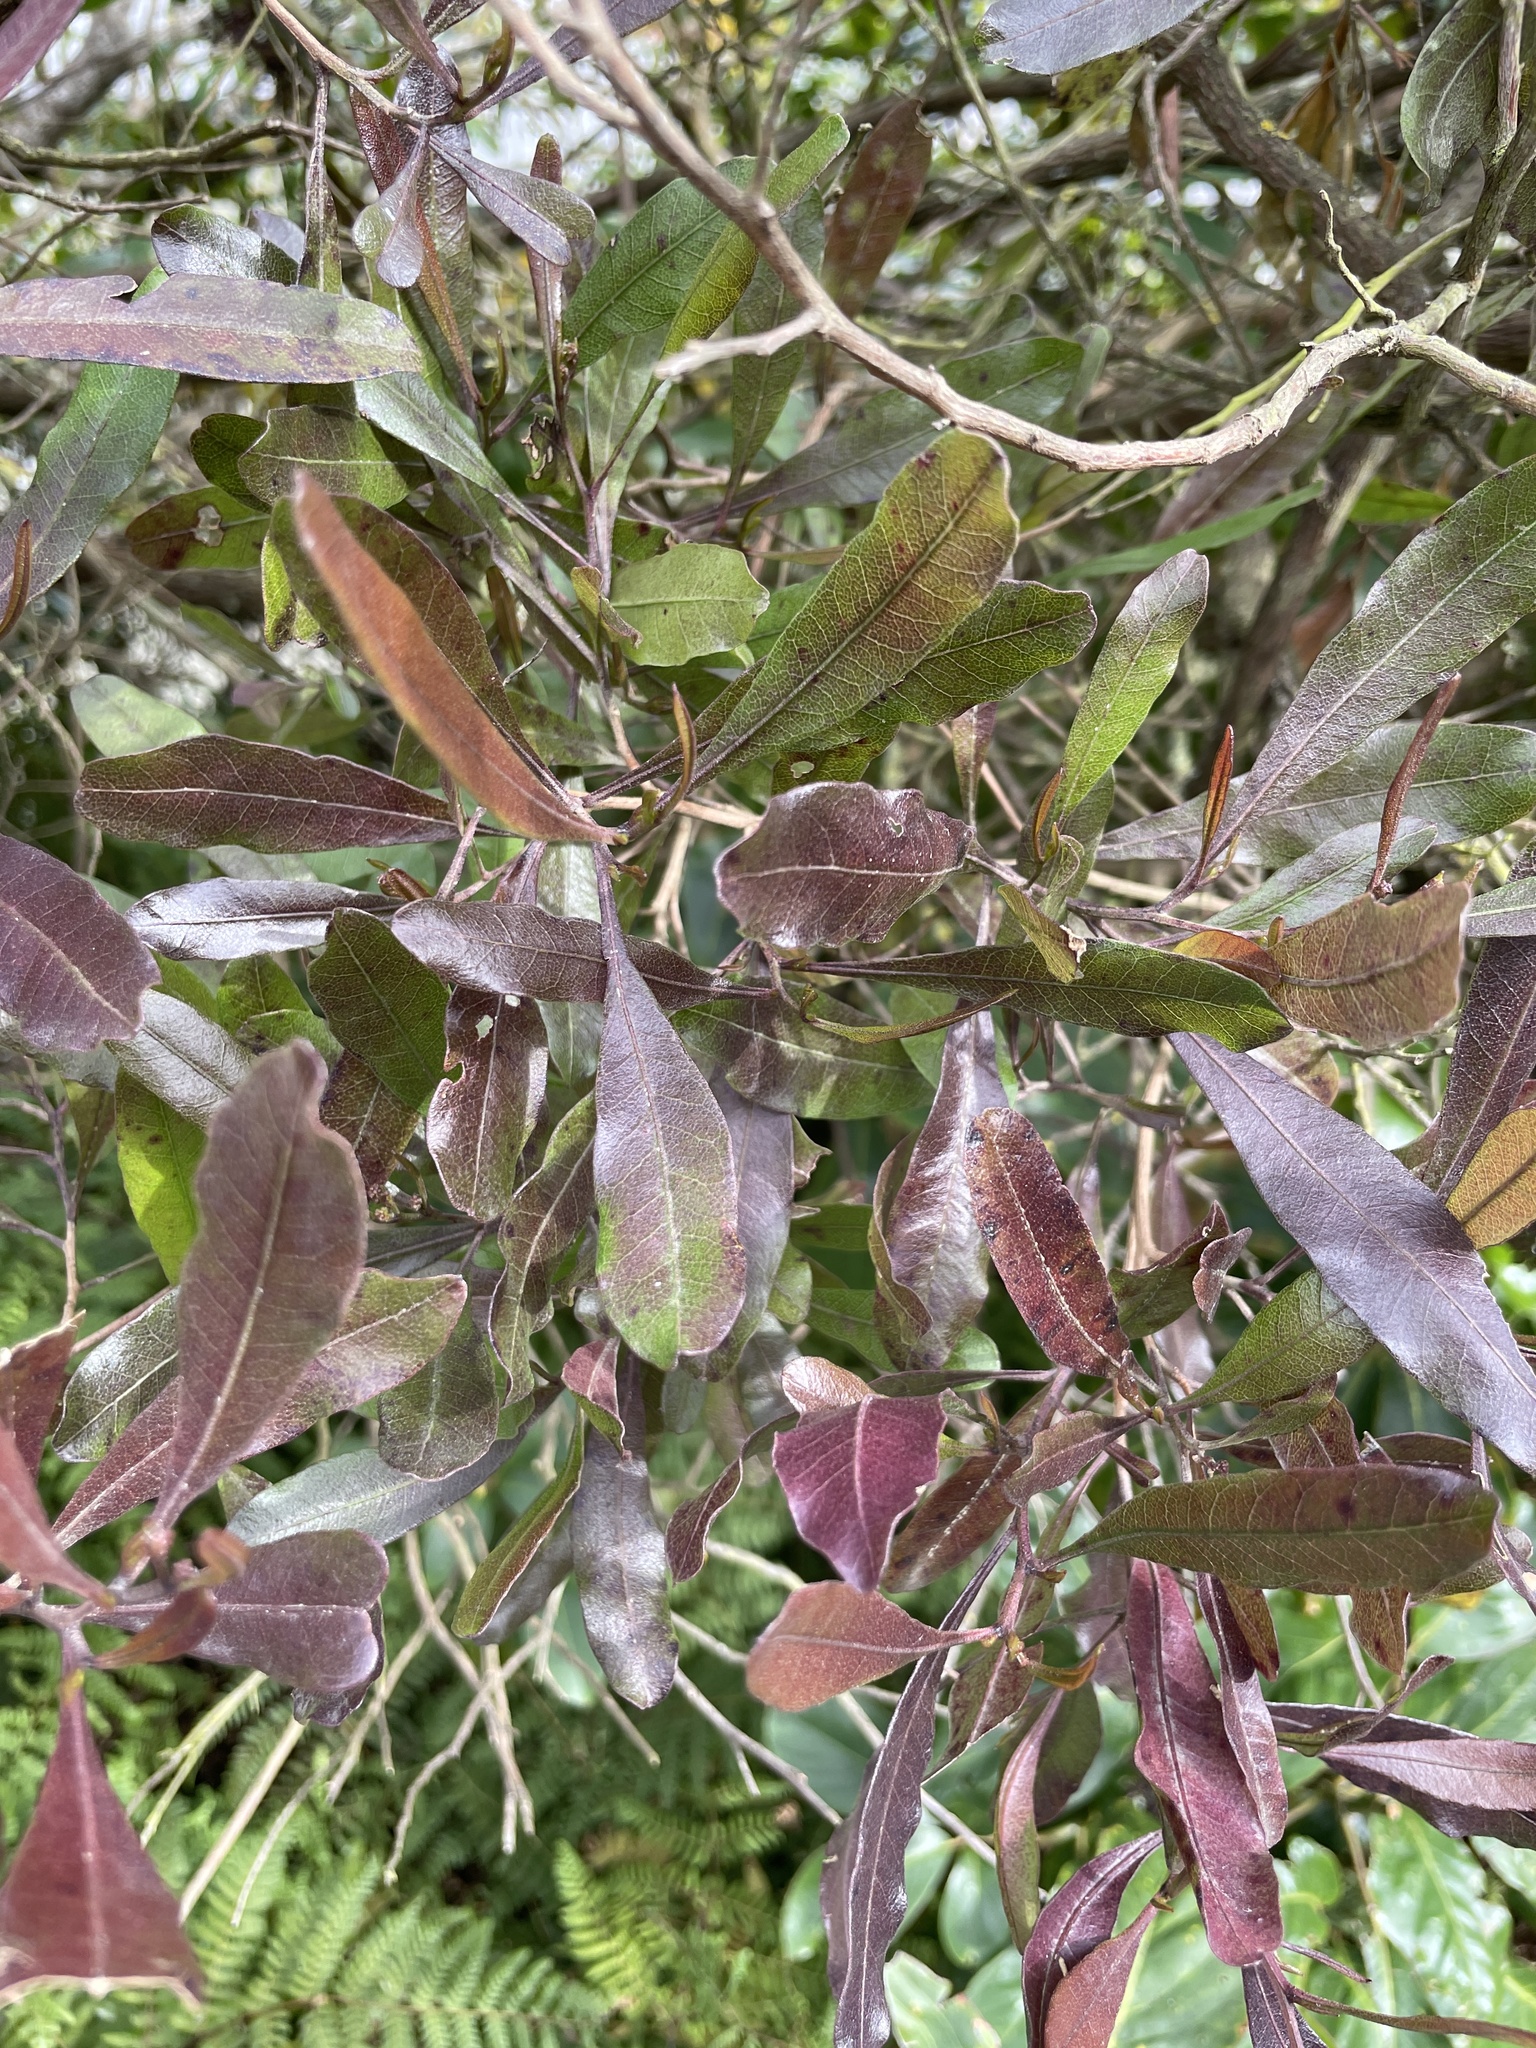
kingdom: Plantae
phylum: Tracheophyta
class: Magnoliopsida
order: Sapindales
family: Sapindaceae
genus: Dodonaea
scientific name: Dodonaea viscosa
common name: Hopbush
